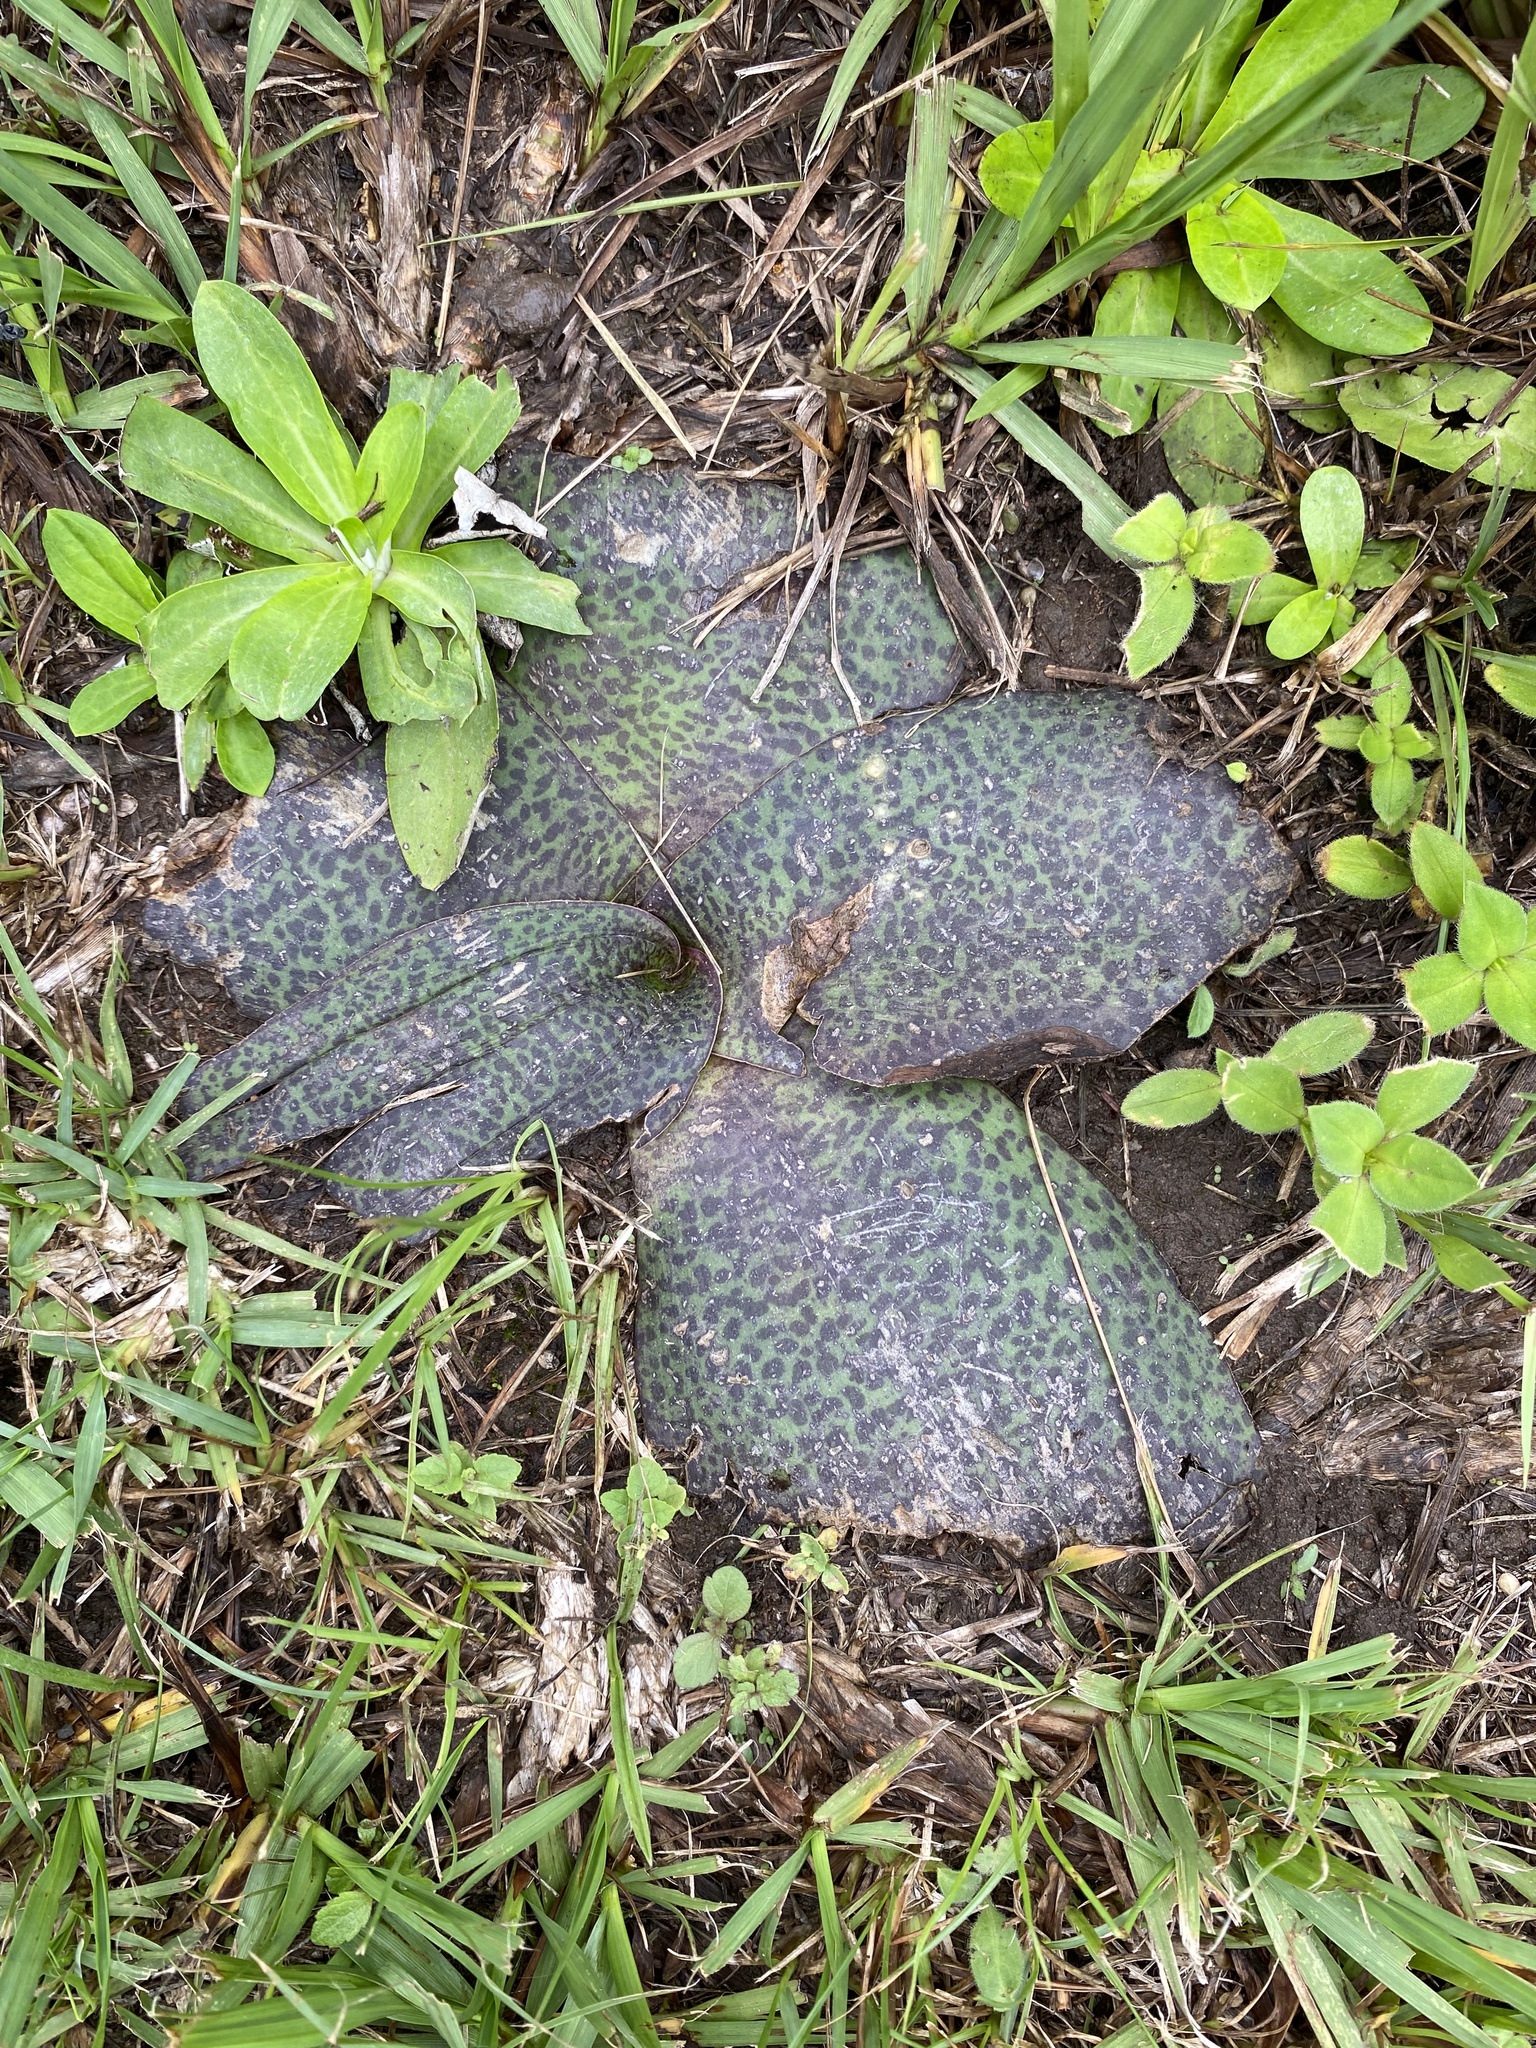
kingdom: Plantae
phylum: Tracheophyta
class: Liliopsida
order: Asparagales
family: Asparagaceae
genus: Ledebouria
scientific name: Ledebouria ovatifolia
